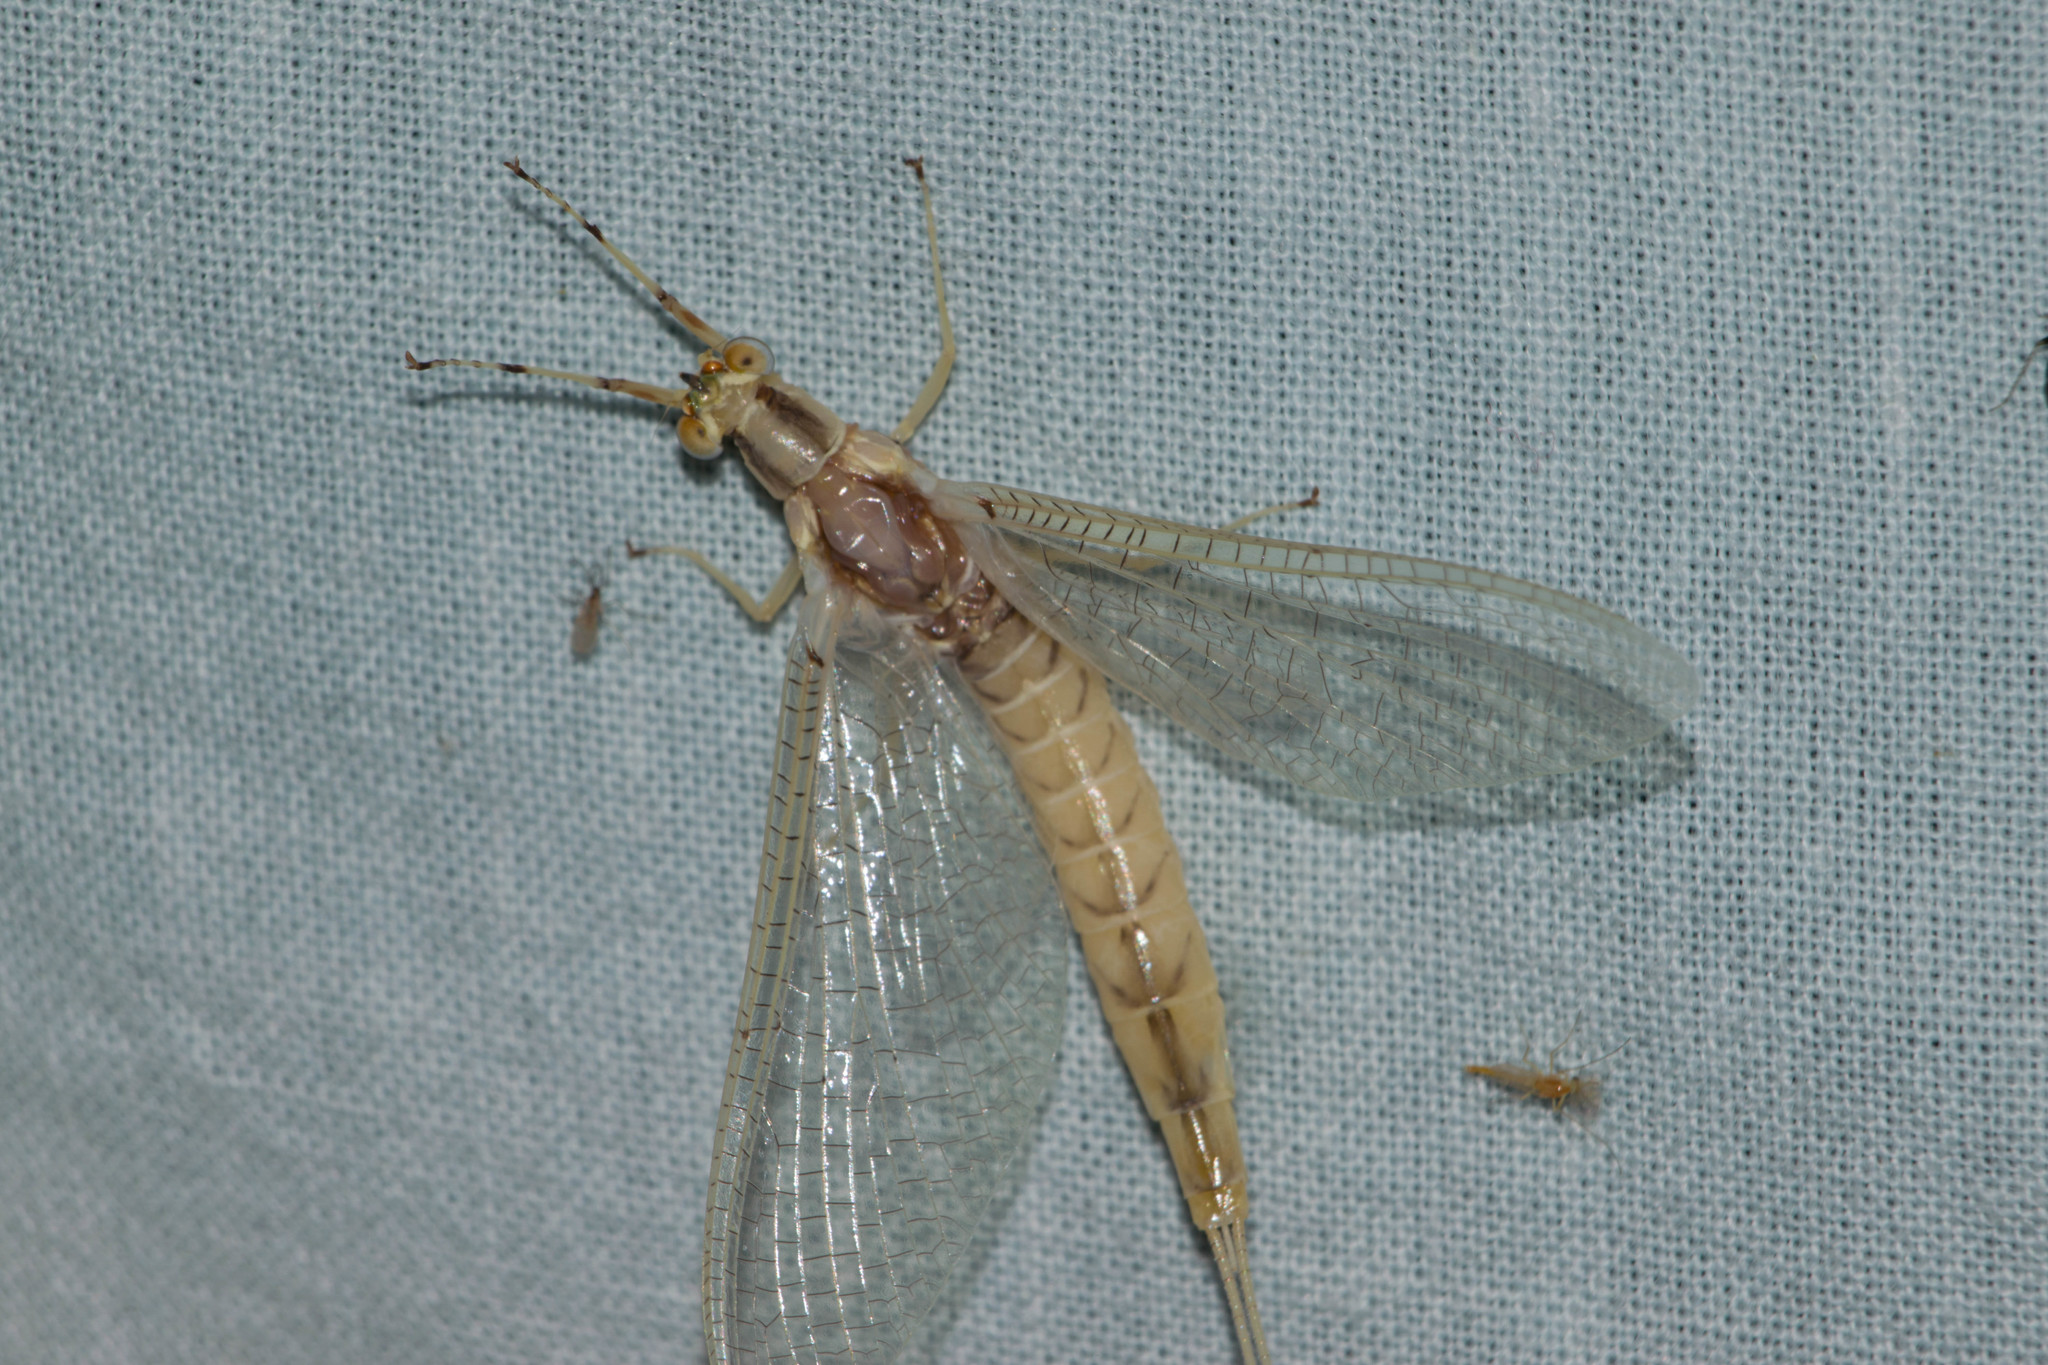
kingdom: Animalia
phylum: Arthropoda
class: Insecta
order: Ephemeroptera
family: Ephemeridae
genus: Hexagenia
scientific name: Hexagenia limbata
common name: Giant mayfly
